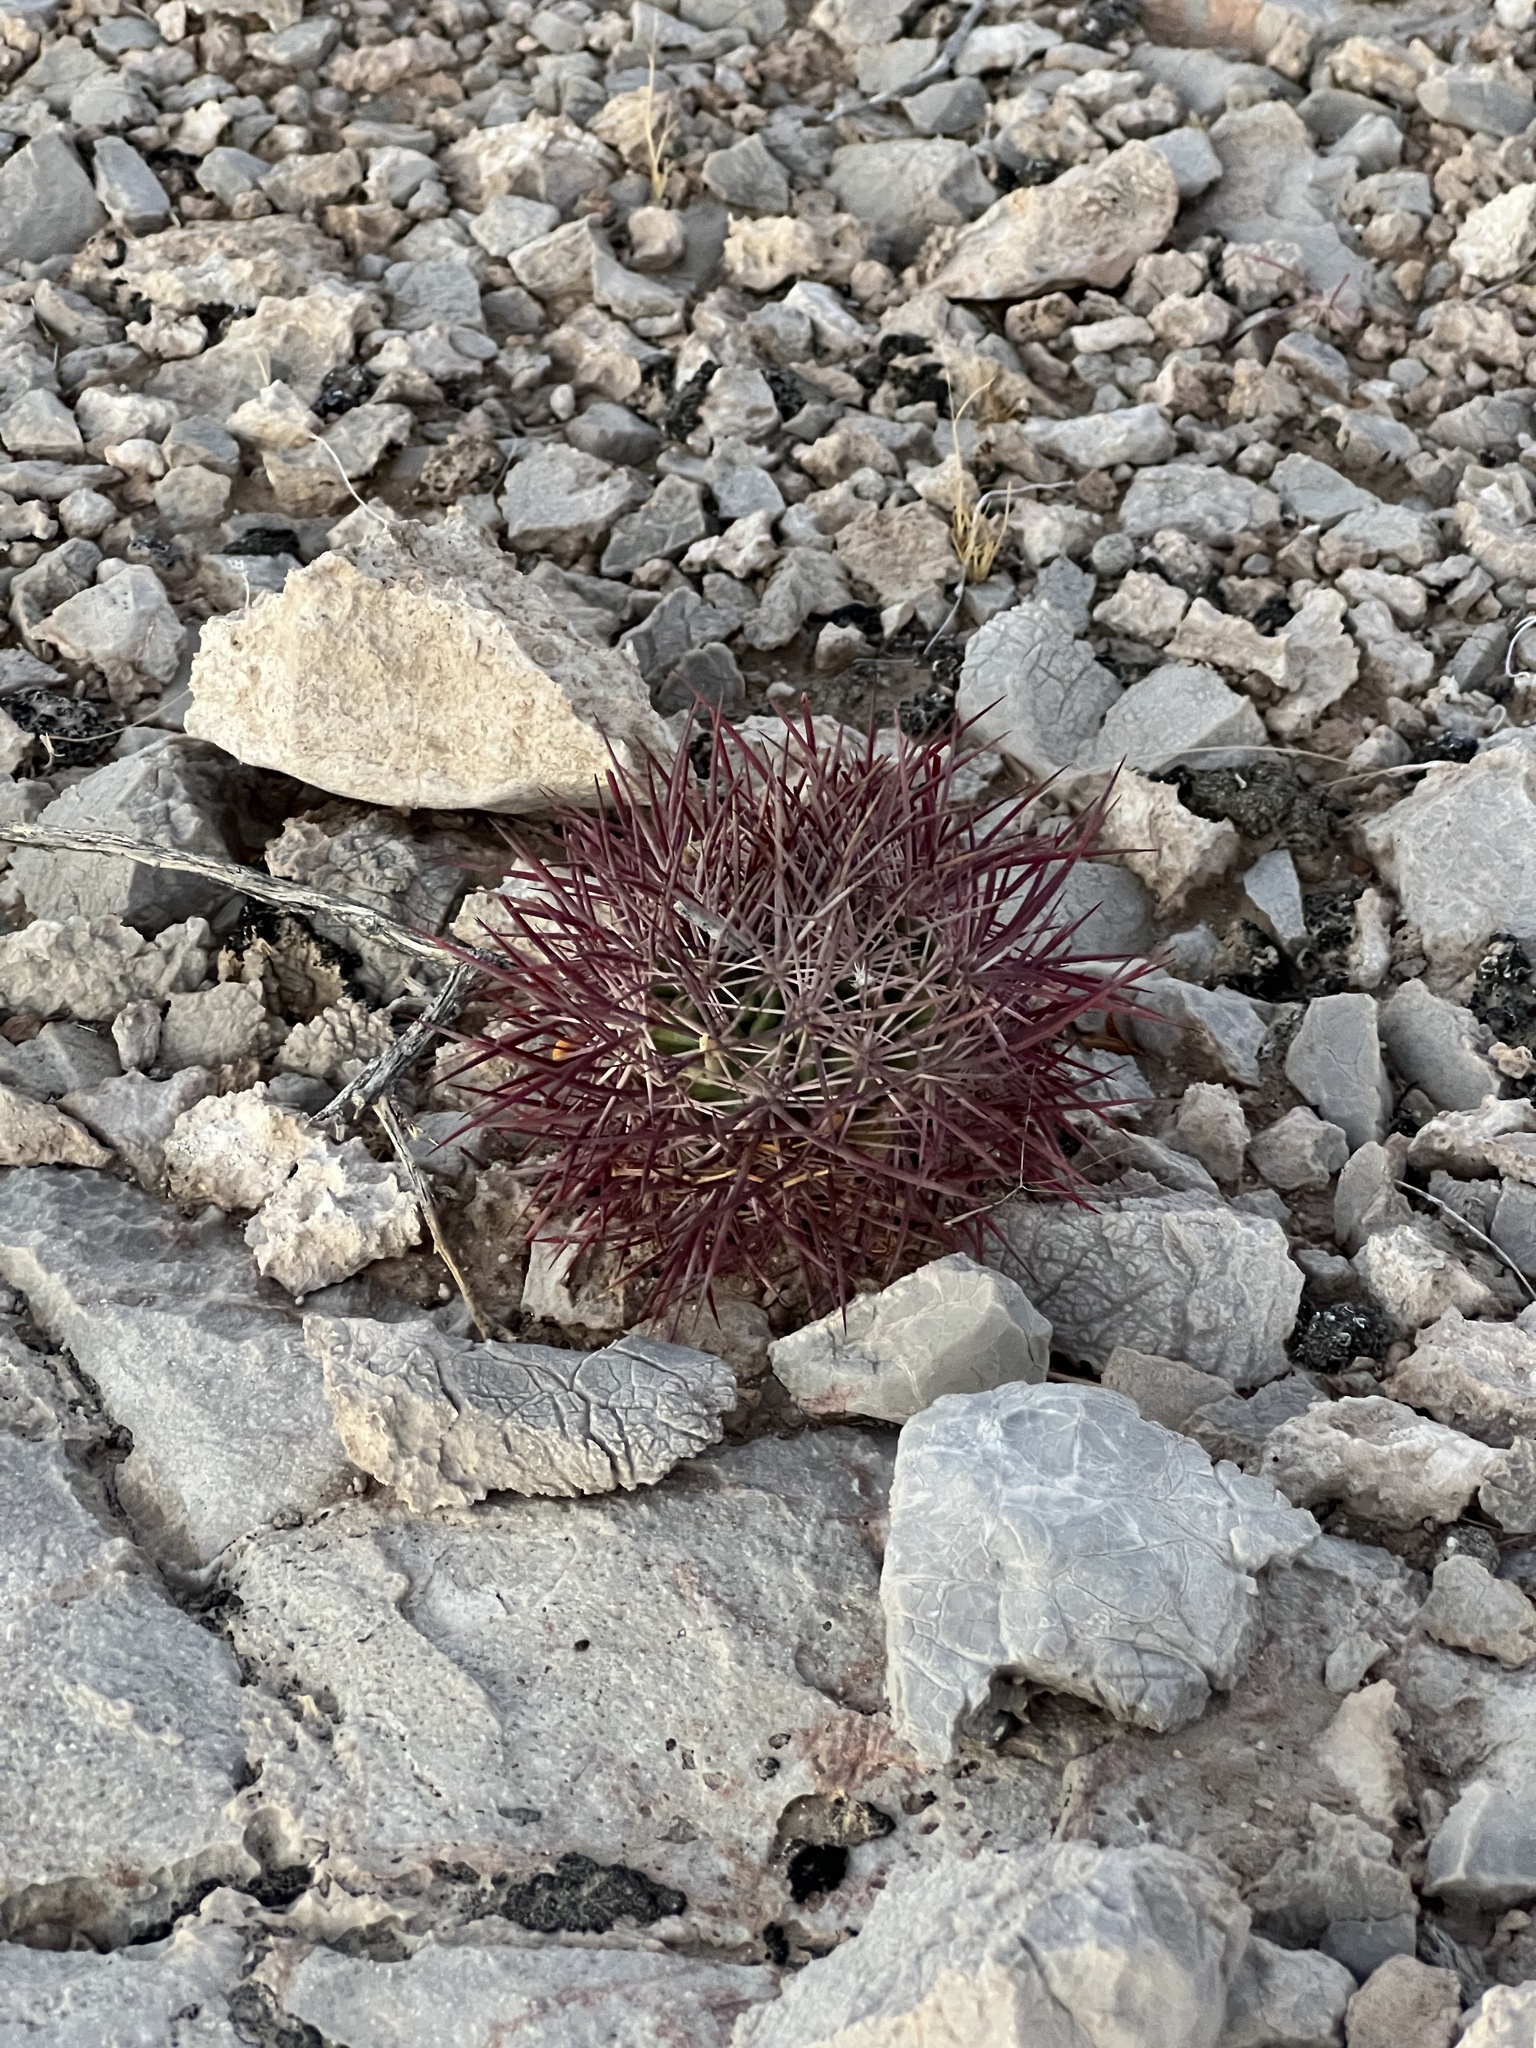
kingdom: Plantae
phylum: Tracheophyta
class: Magnoliopsida
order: Caryophyllales
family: Cactaceae
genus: Sclerocactus
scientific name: Sclerocactus johnsonii
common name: Eight-spine fishhook cactus
